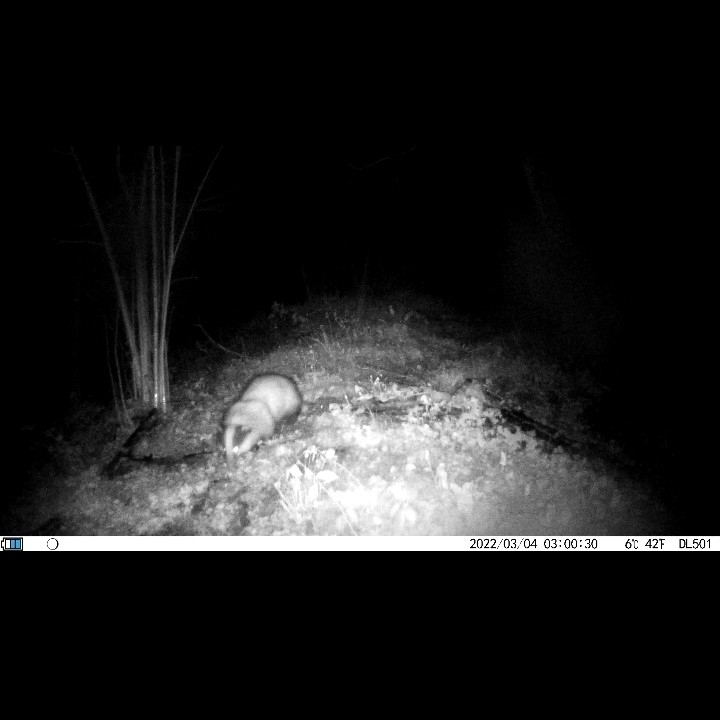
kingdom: Animalia
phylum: Chordata
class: Mammalia
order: Carnivora
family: Mustelidae
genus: Meles
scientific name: Meles meles
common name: Eurasian badger
